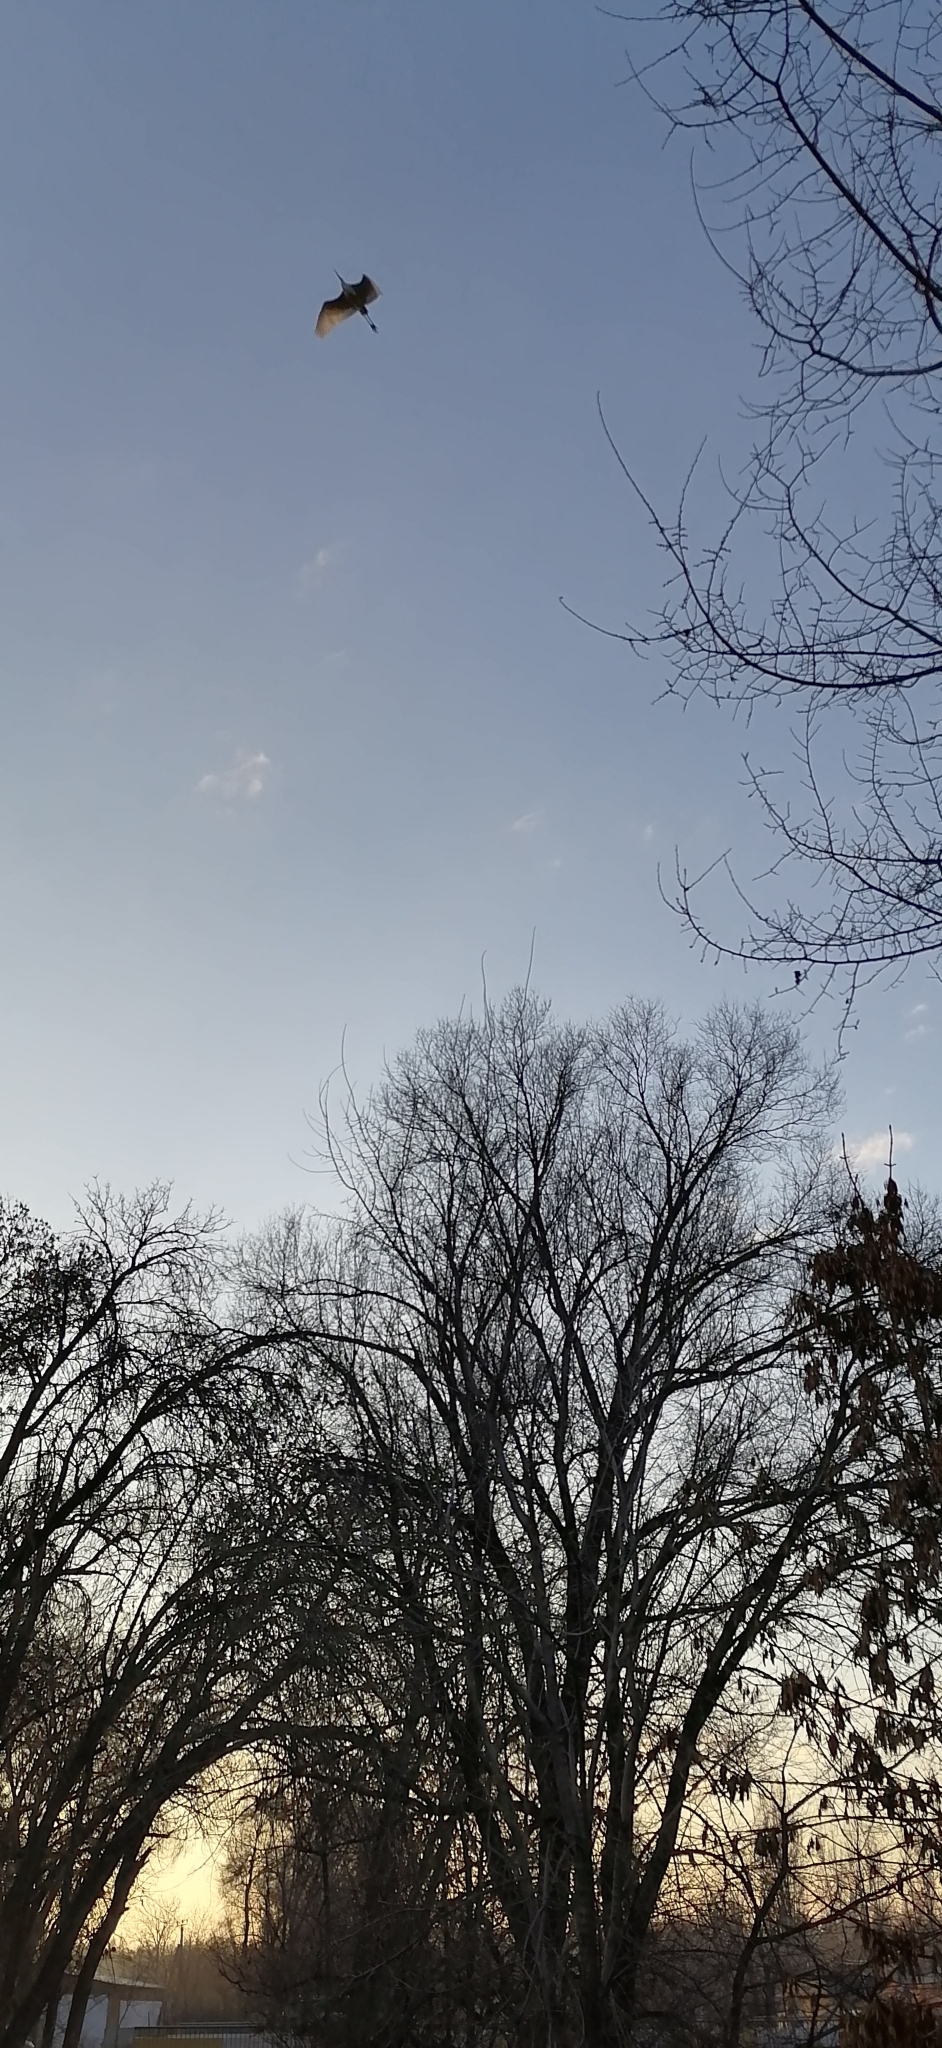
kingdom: Animalia
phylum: Chordata
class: Aves
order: Pelecaniformes
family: Ardeidae
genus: Ardea
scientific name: Ardea alba
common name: Great egret
